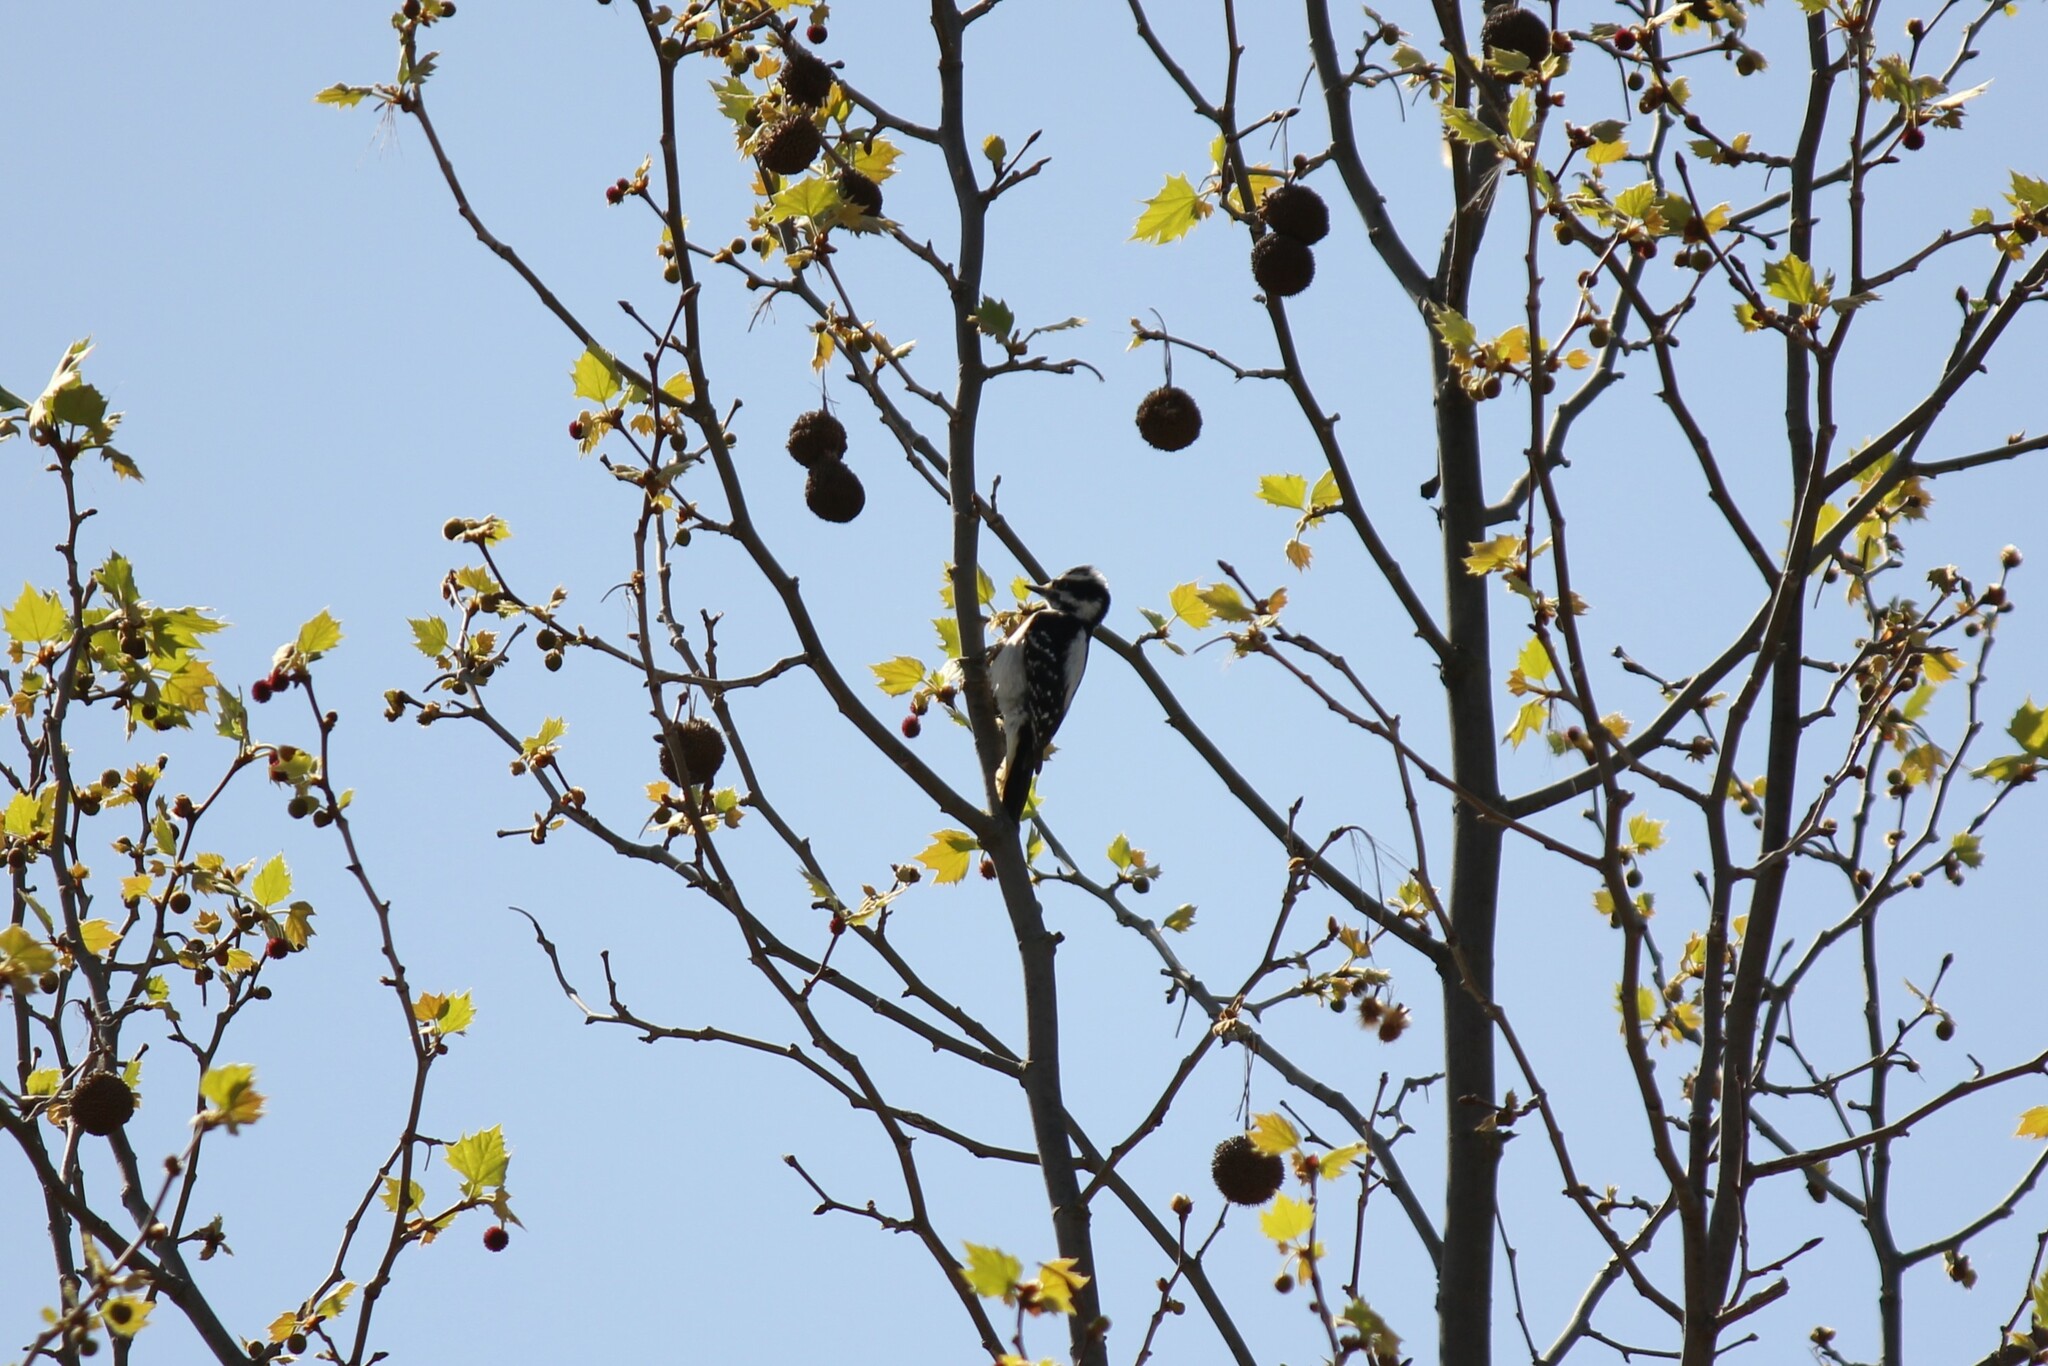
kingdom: Animalia
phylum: Chordata
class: Aves
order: Piciformes
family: Picidae
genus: Dryobates
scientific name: Dryobates pubescens
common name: Downy woodpecker
